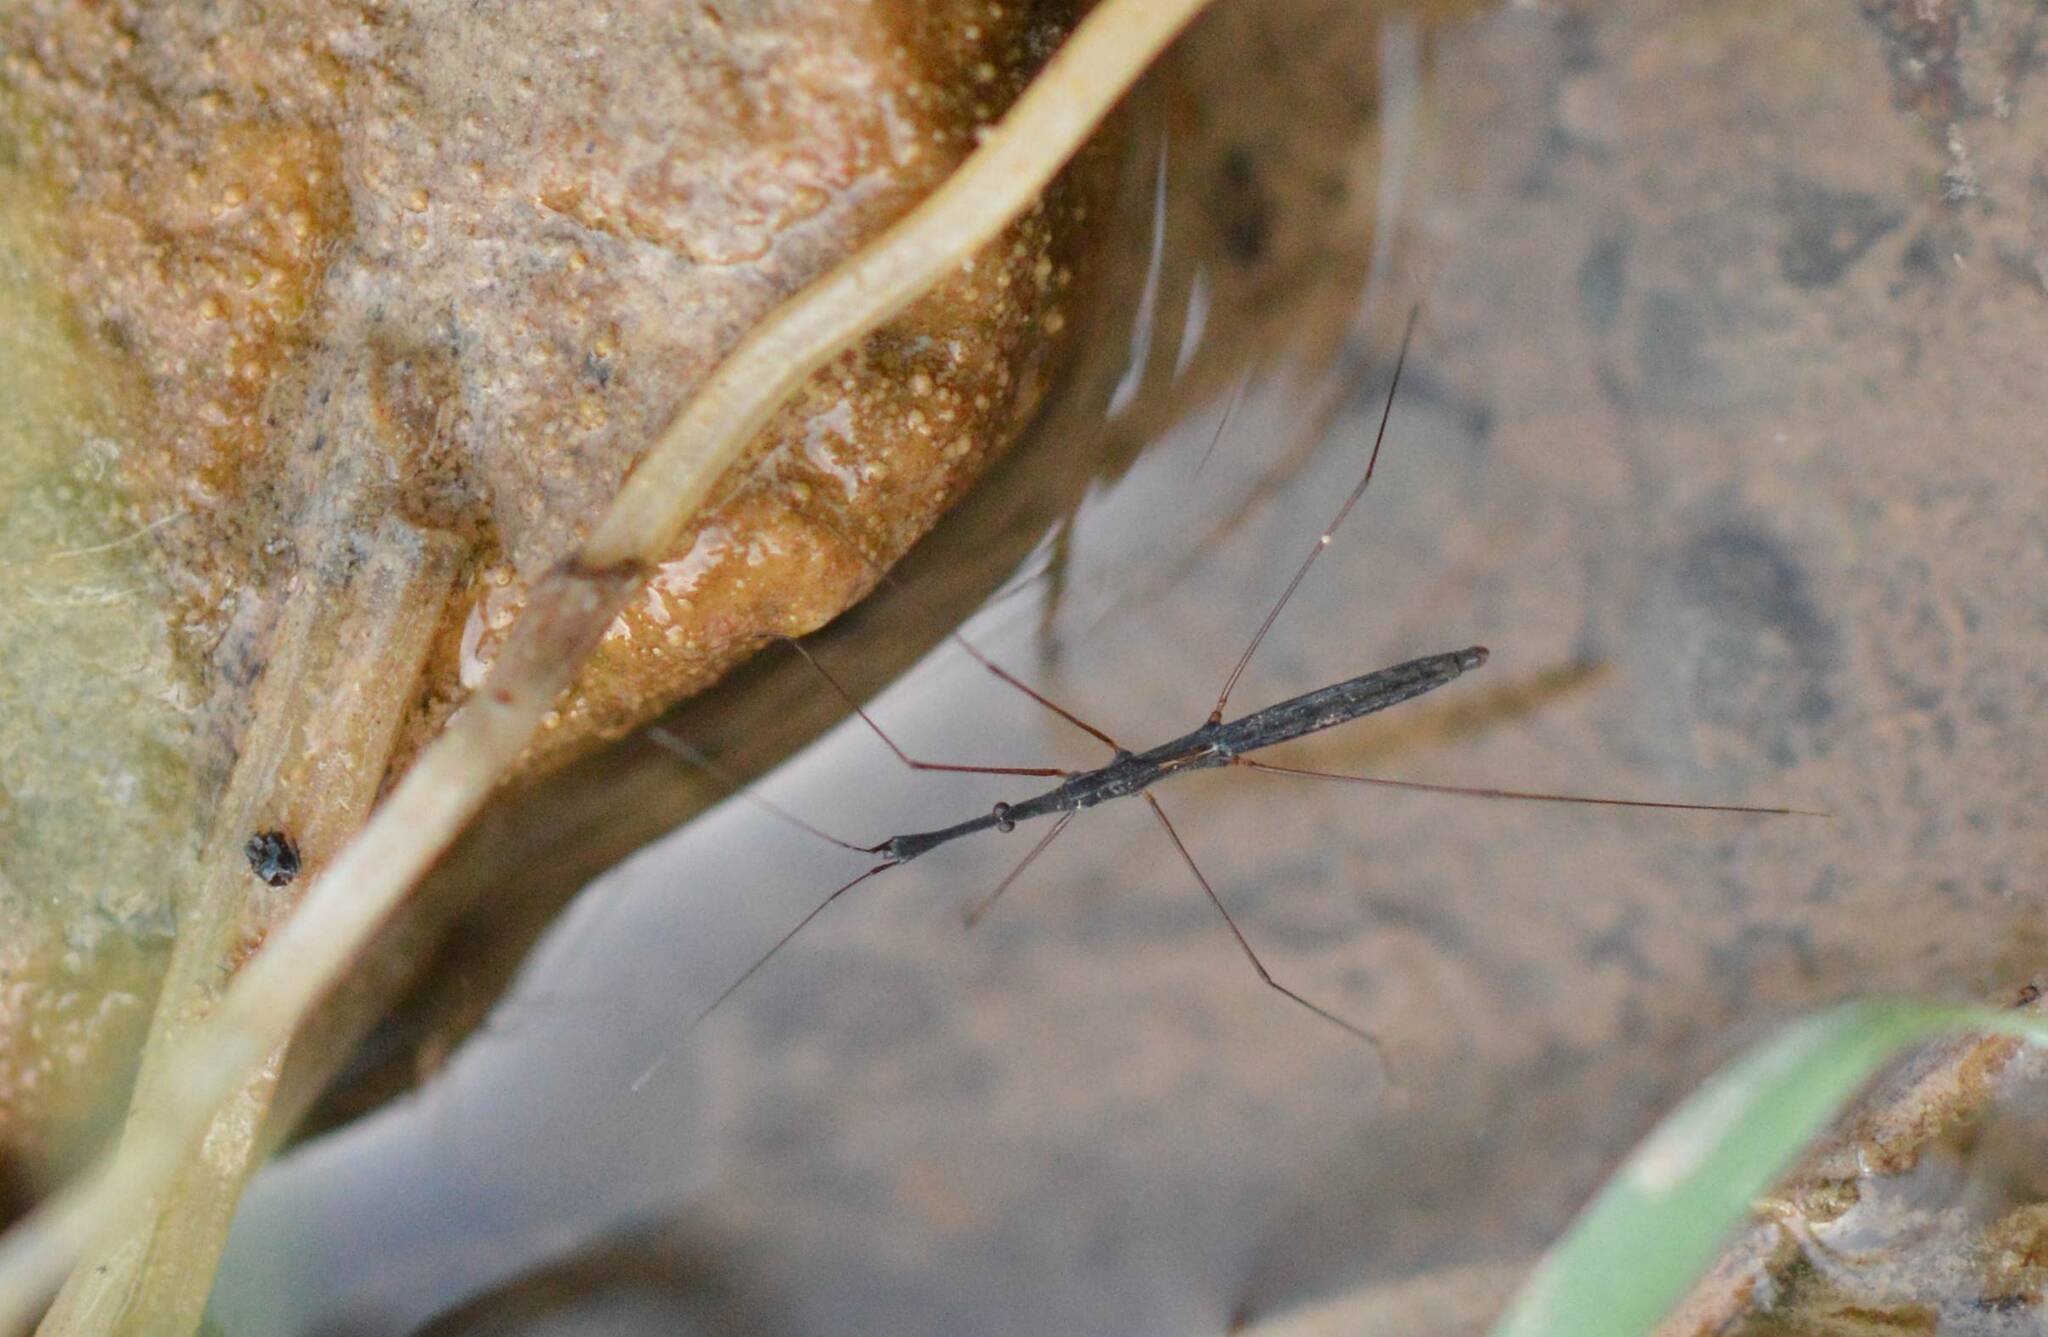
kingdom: Animalia
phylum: Arthropoda
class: Insecta
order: Hemiptera
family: Hydrometridae
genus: Hydrometra
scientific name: Hydrometra stagnorum
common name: Water measurer
